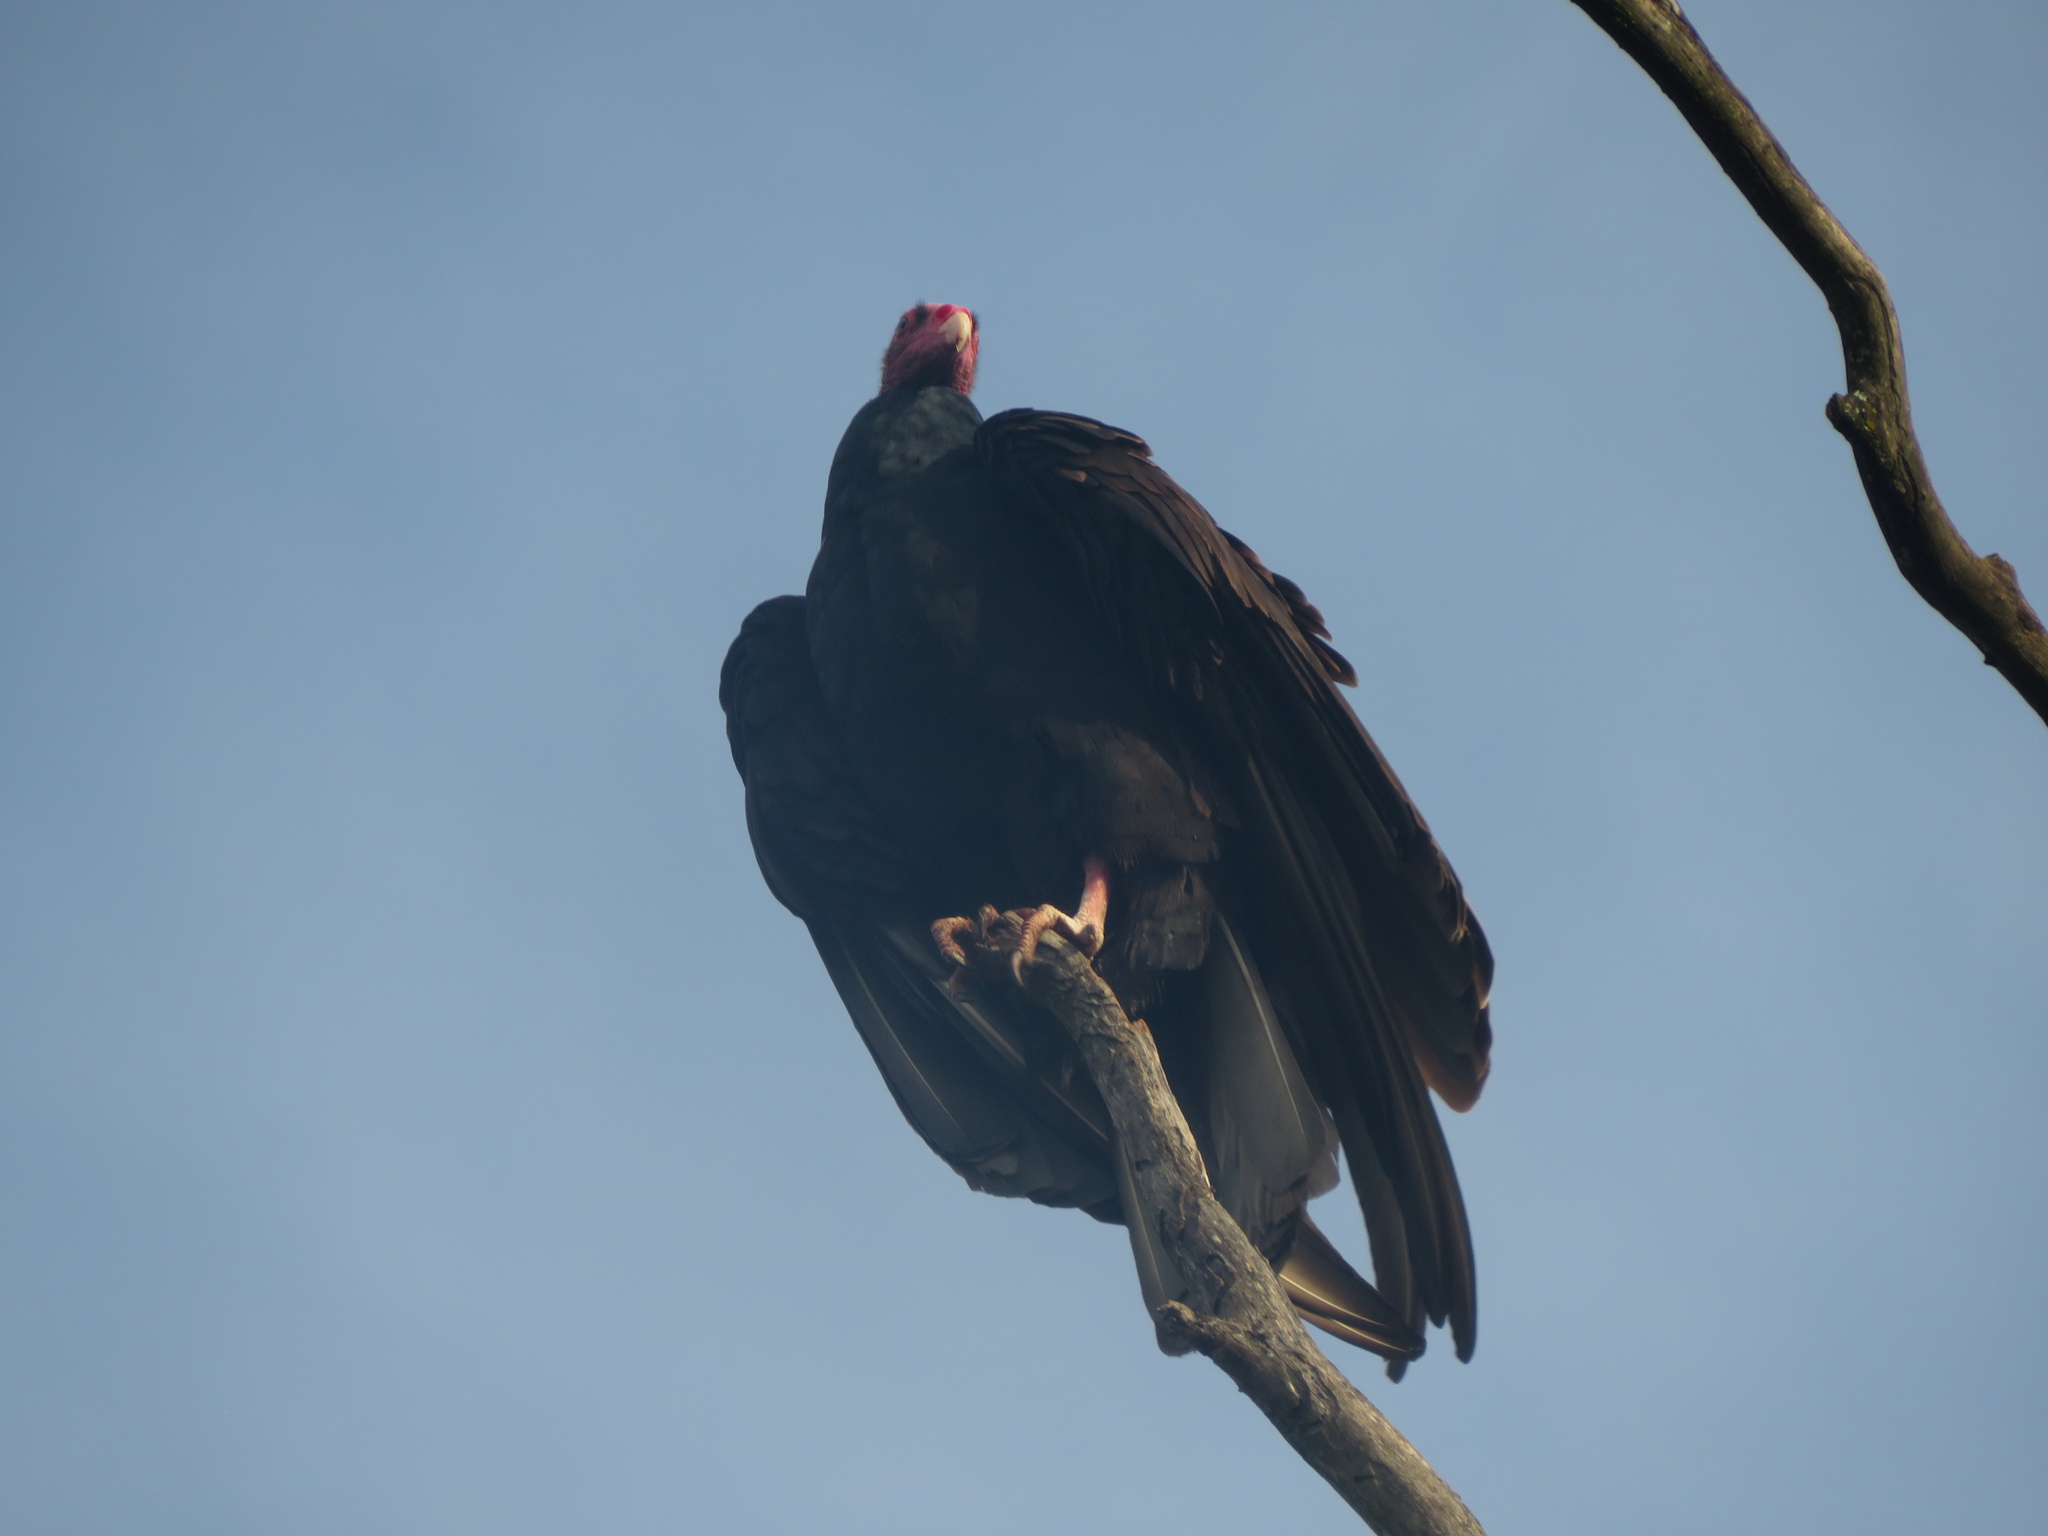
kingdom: Animalia
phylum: Chordata
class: Aves
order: Accipitriformes
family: Cathartidae
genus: Cathartes
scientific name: Cathartes aura
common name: Turkey vulture
